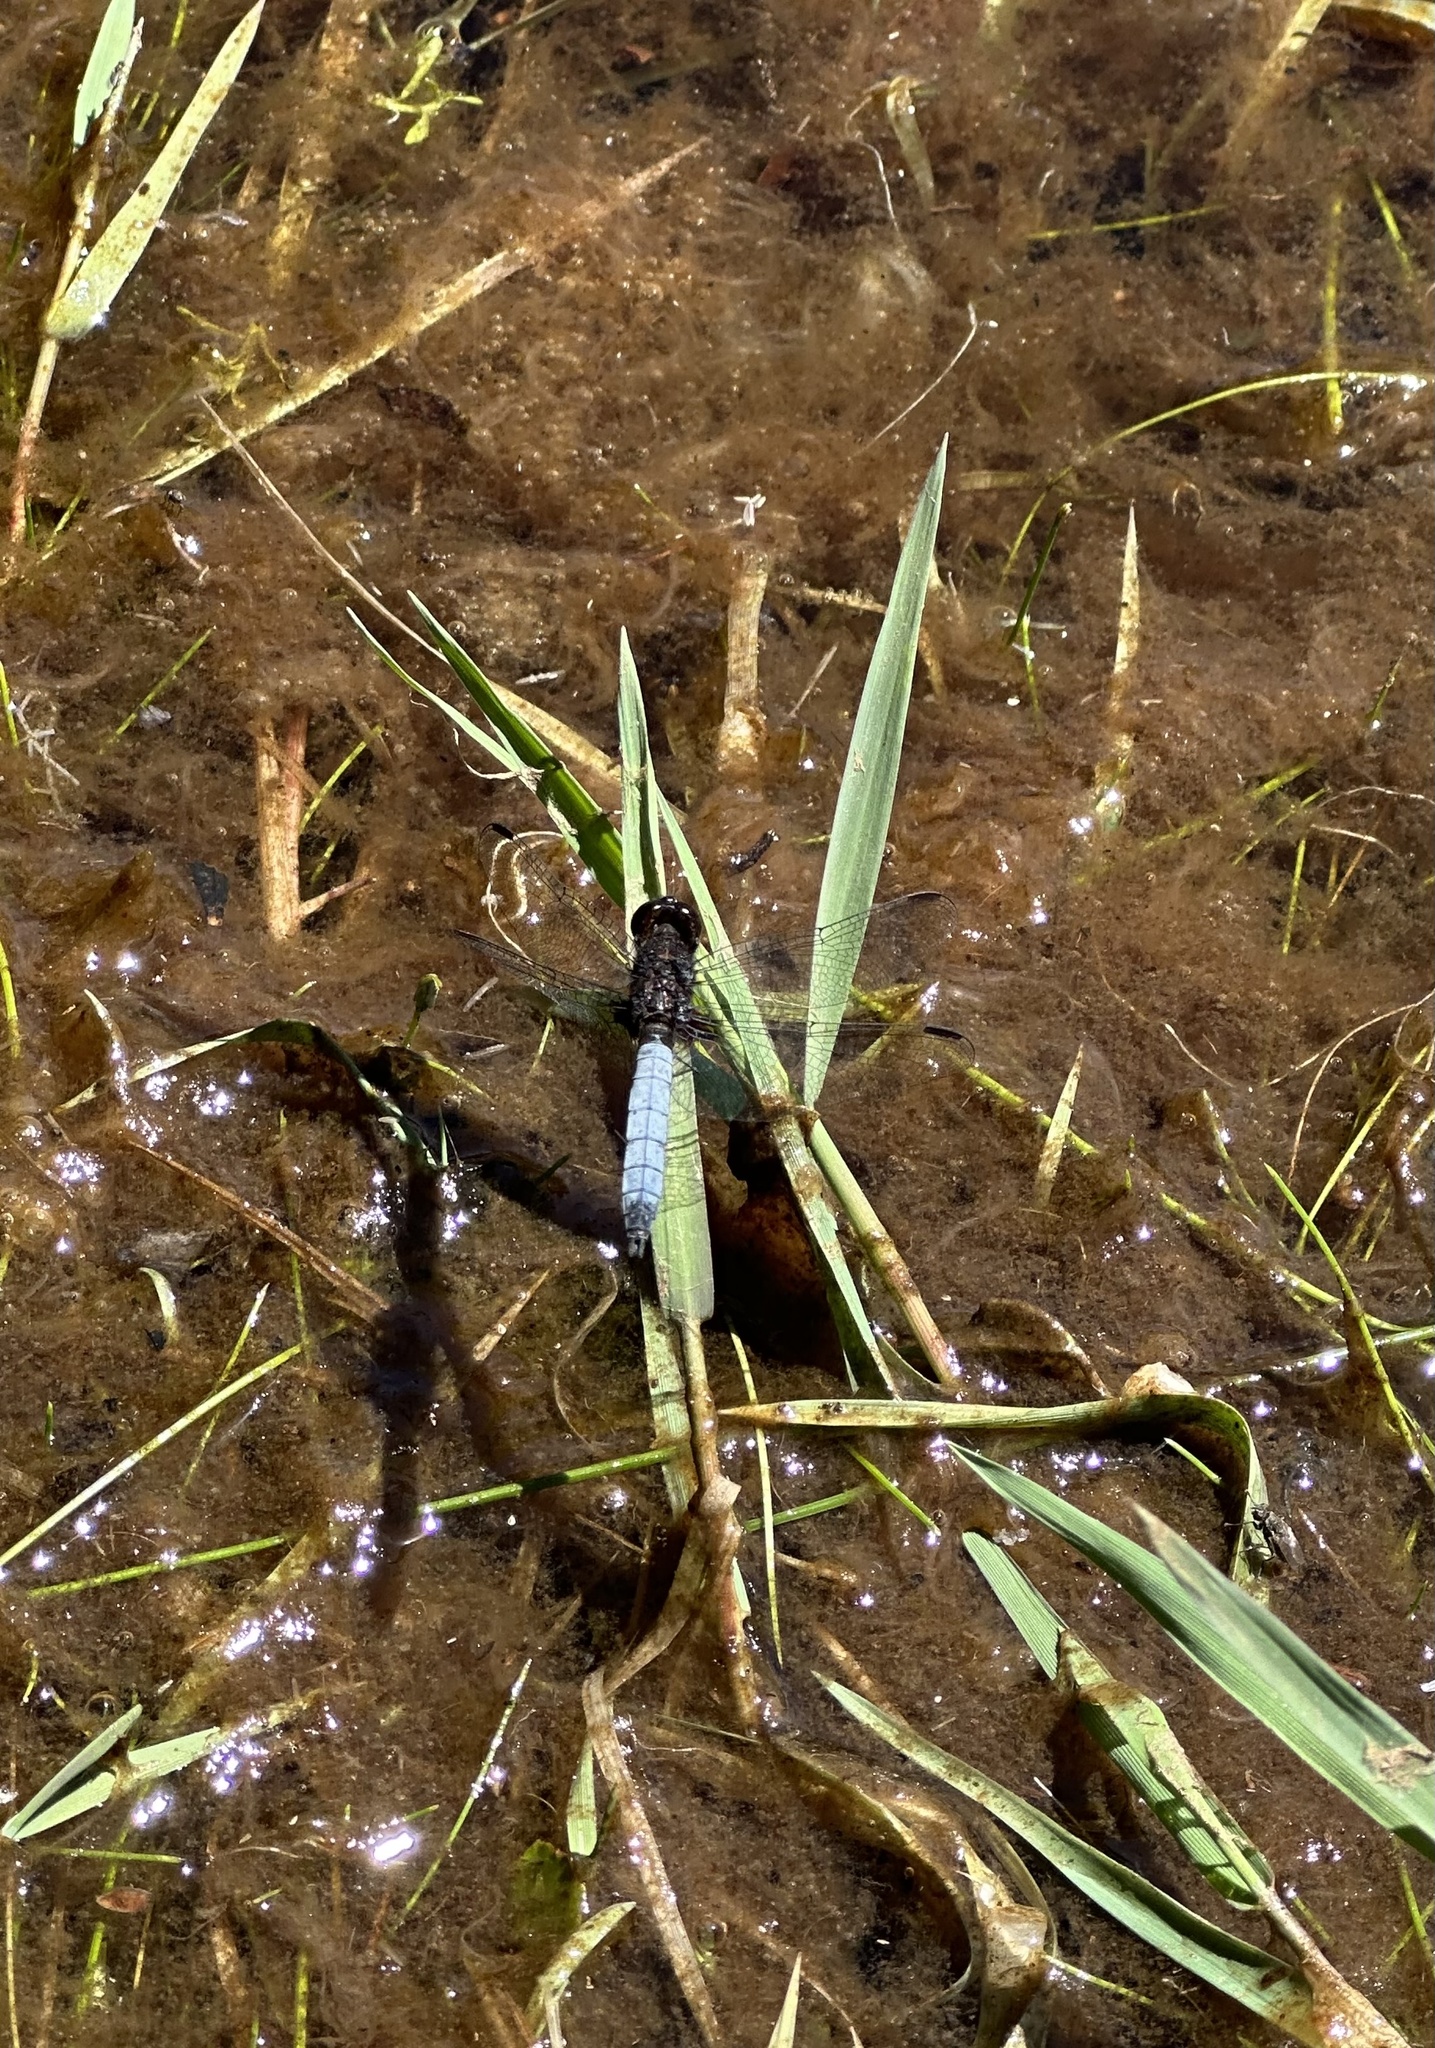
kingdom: Animalia
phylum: Arthropoda
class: Insecta
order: Odonata
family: Libellulidae
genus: Erythrodiplax
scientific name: Erythrodiplax connata
